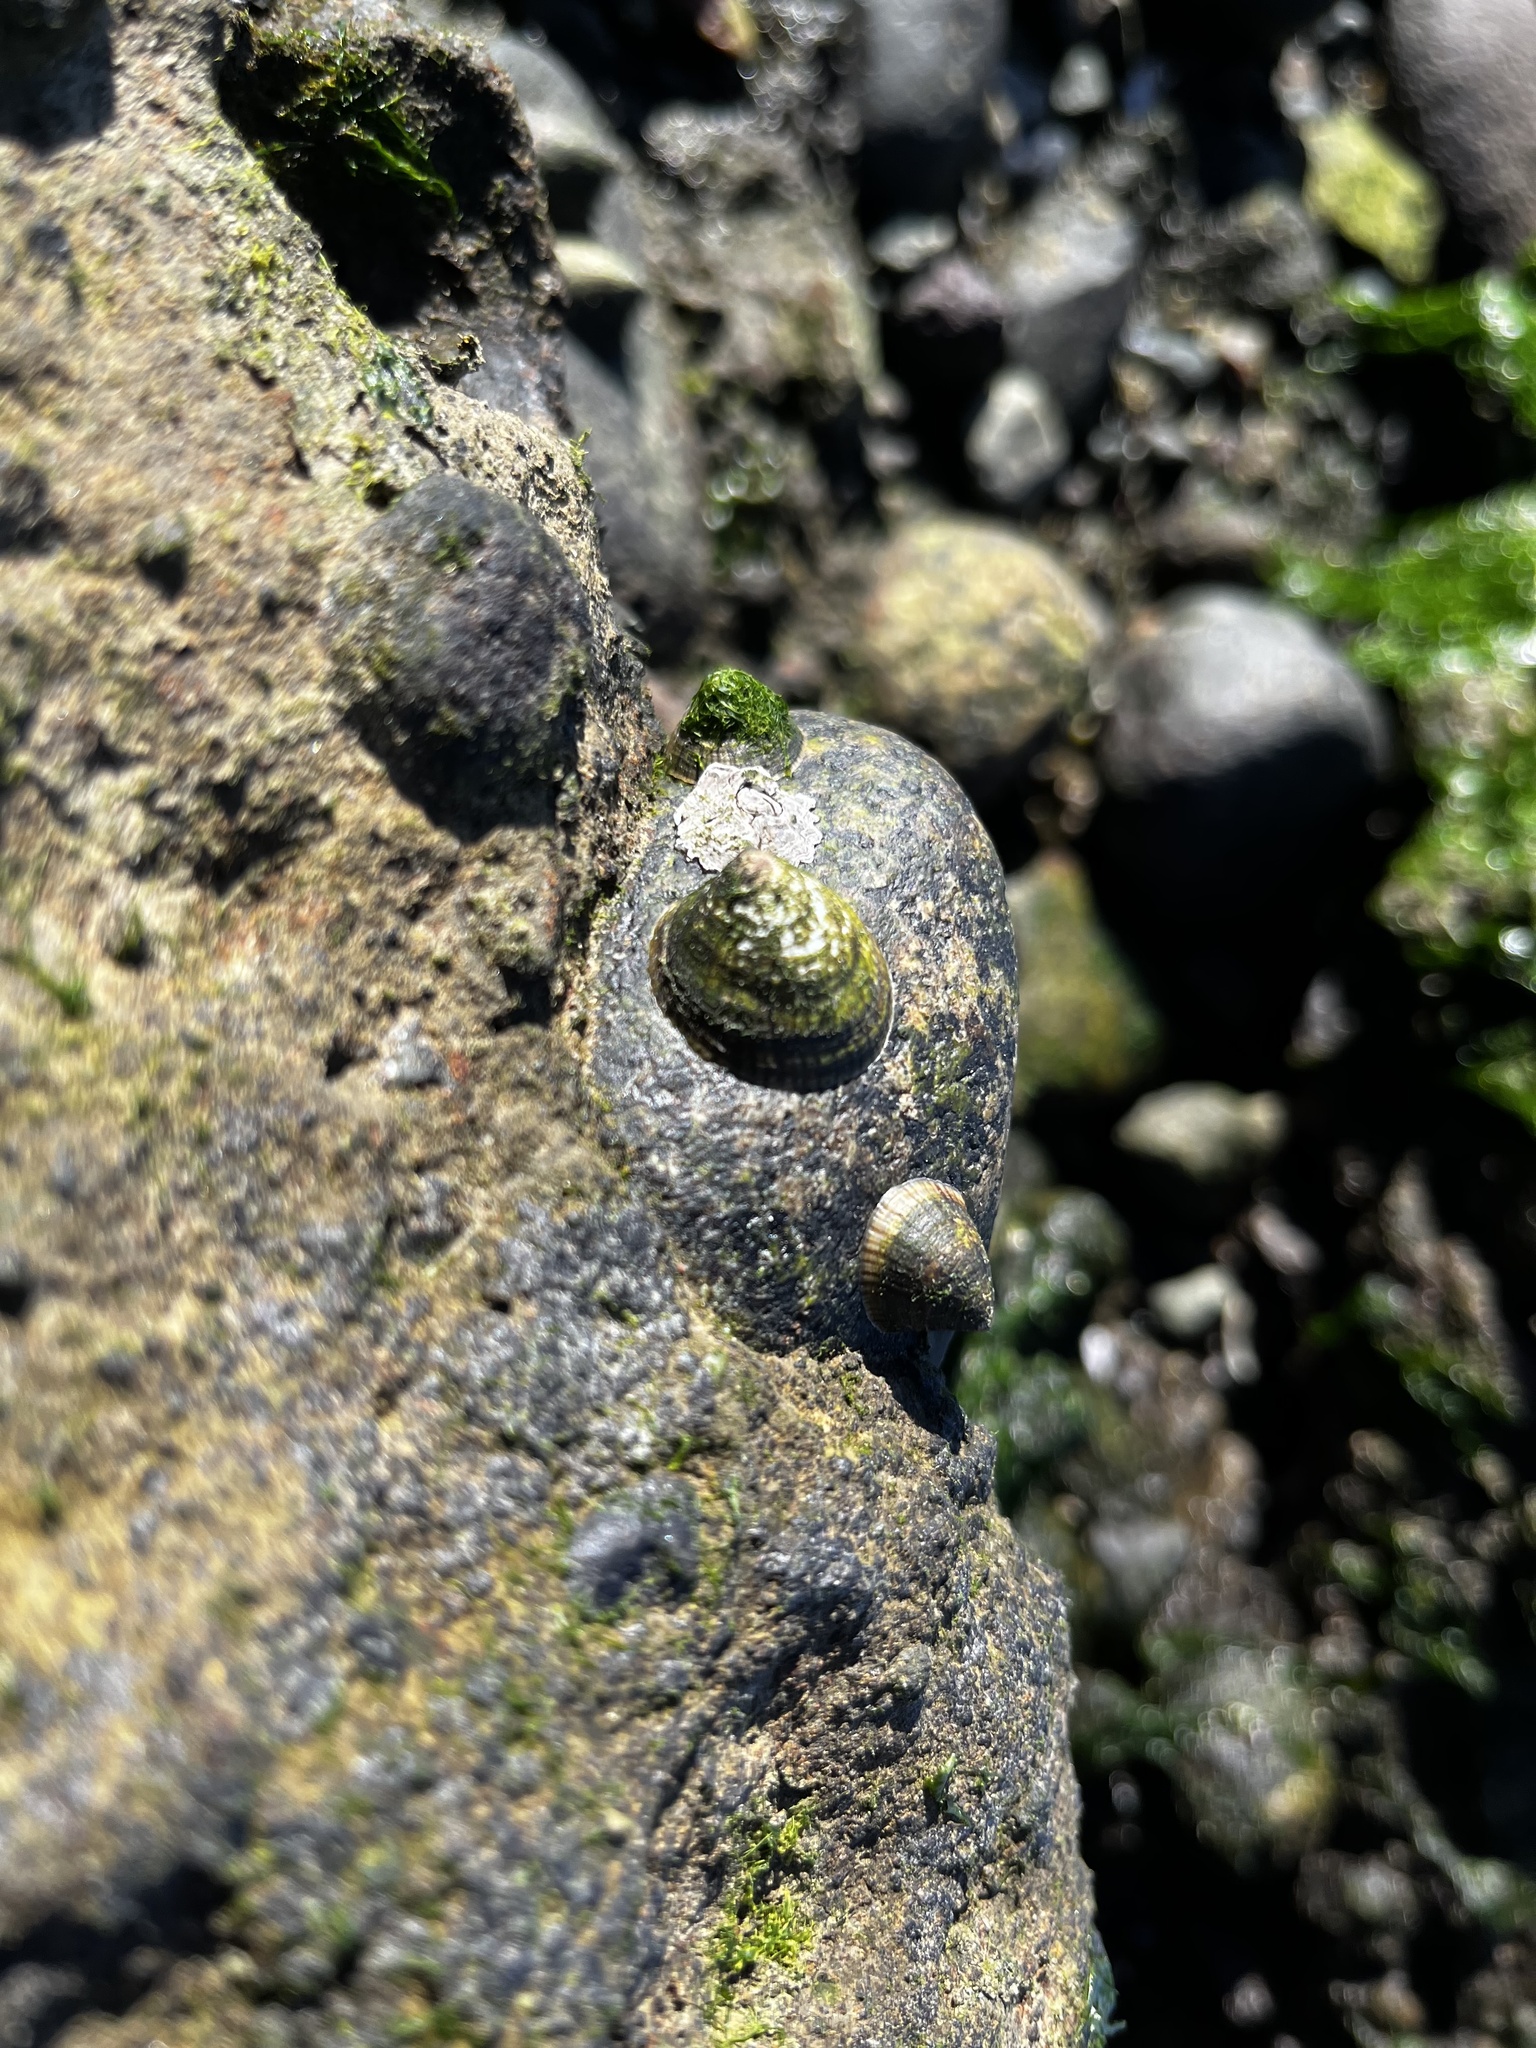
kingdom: Animalia
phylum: Mollusca
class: Gastropoda
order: Siphonariida
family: Siphonariidae
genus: Siphonaria
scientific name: Siphonaria lessonii
